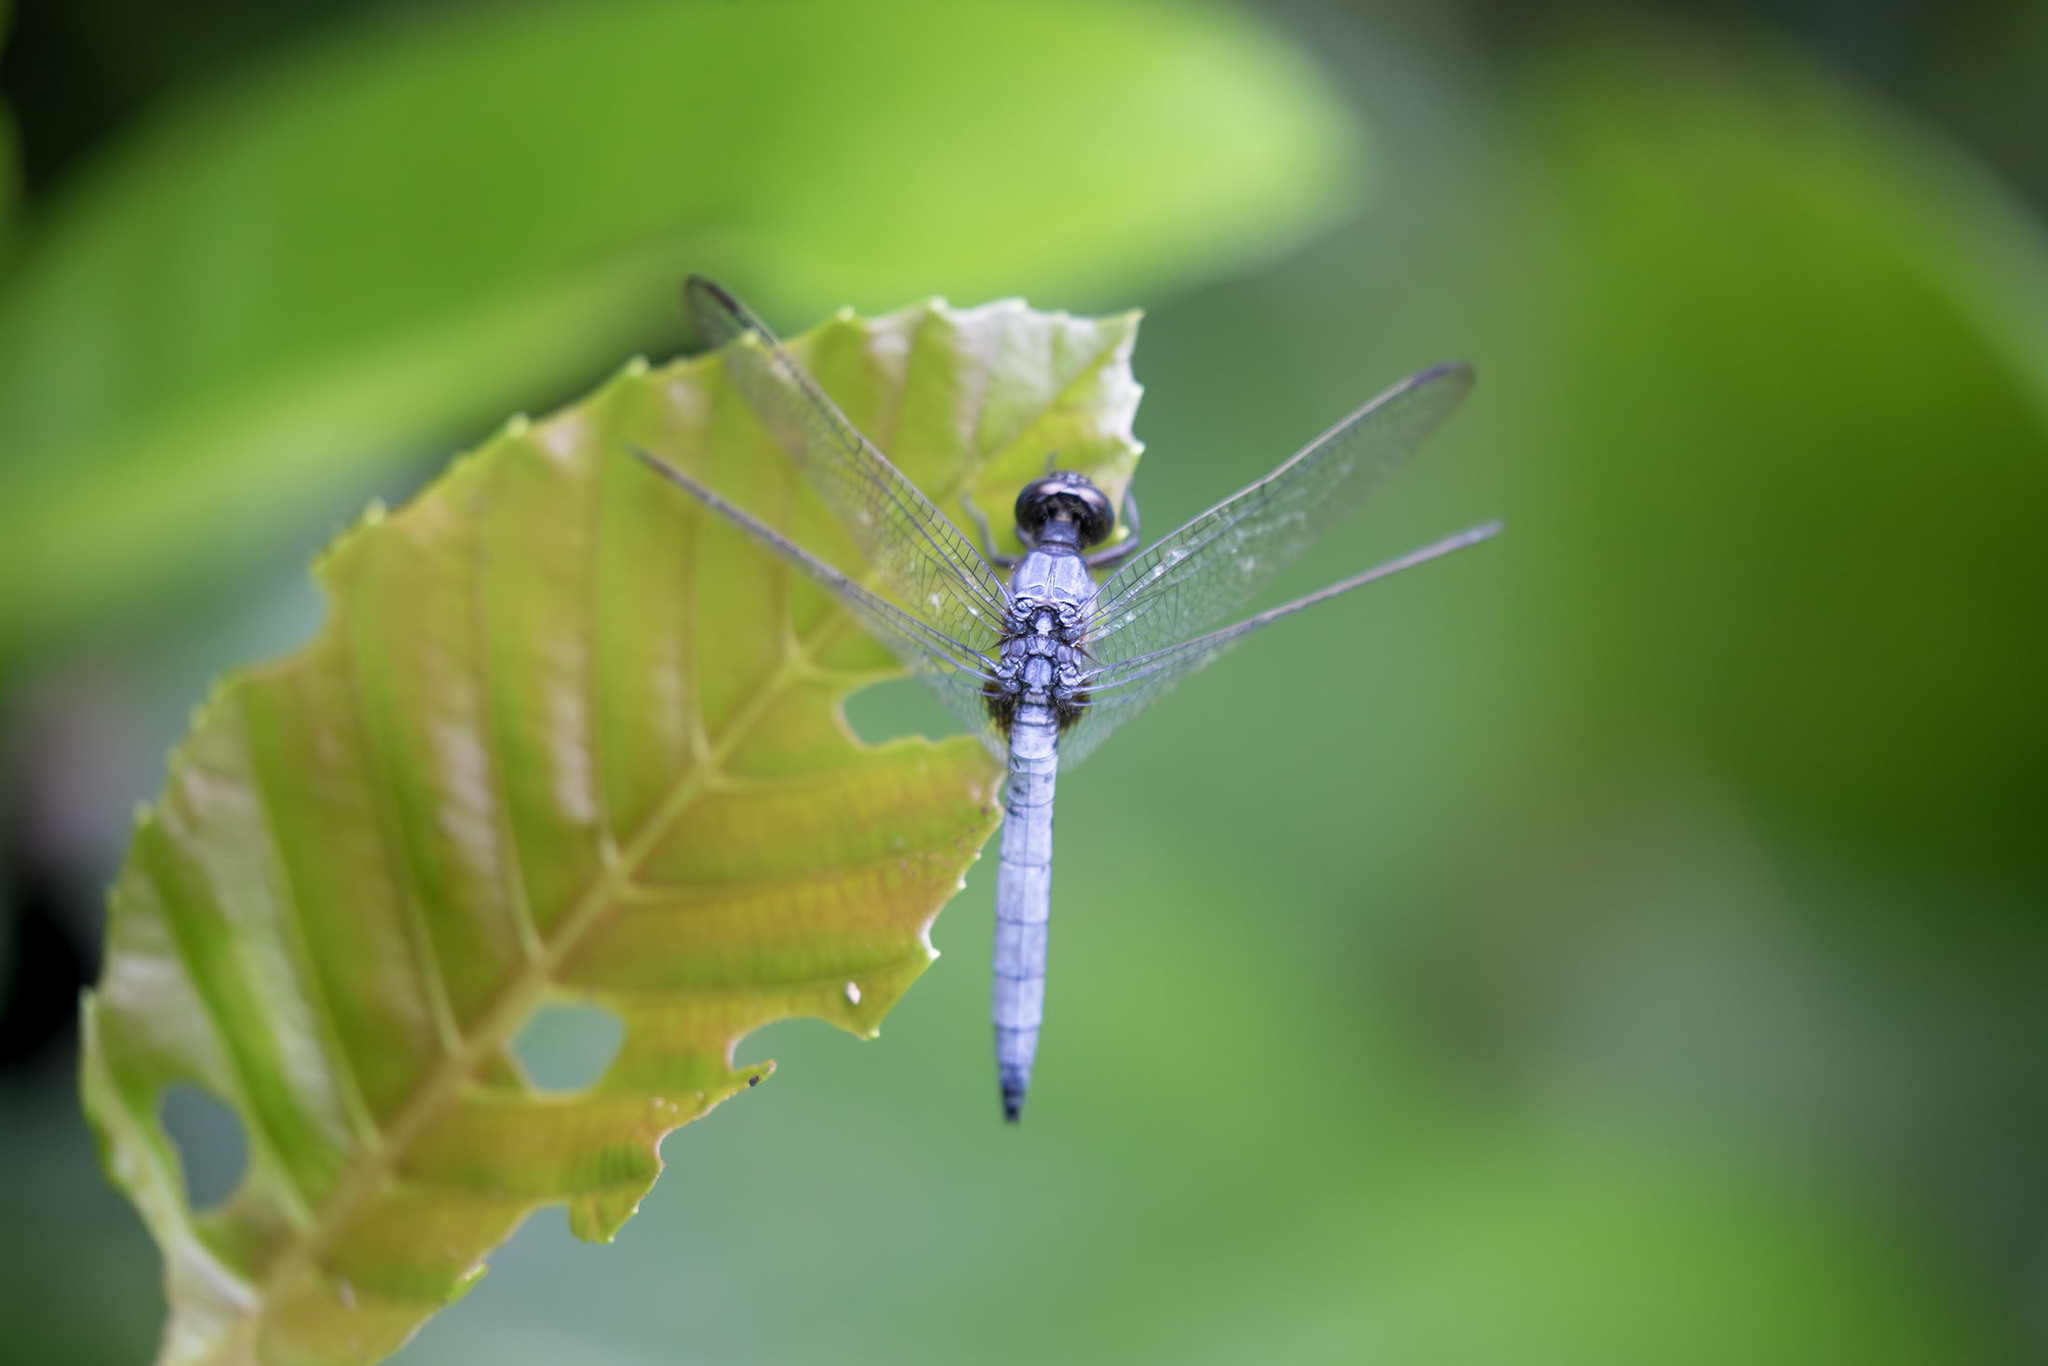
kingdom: Animalia
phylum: Arthropoda
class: Insecta
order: Odonata
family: Libellulidae
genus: Orthetrum
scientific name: Orthetrum glaucum
